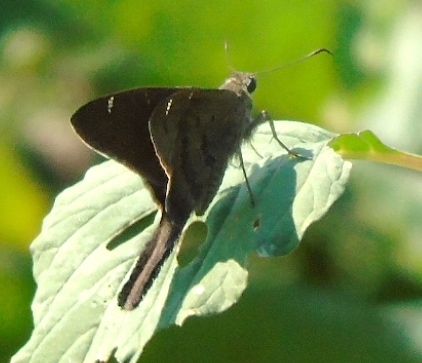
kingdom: Animalia
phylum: Arthropoda
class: Insecta
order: Lepidoptera
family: Hesperiidae
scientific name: Hesperiidae
